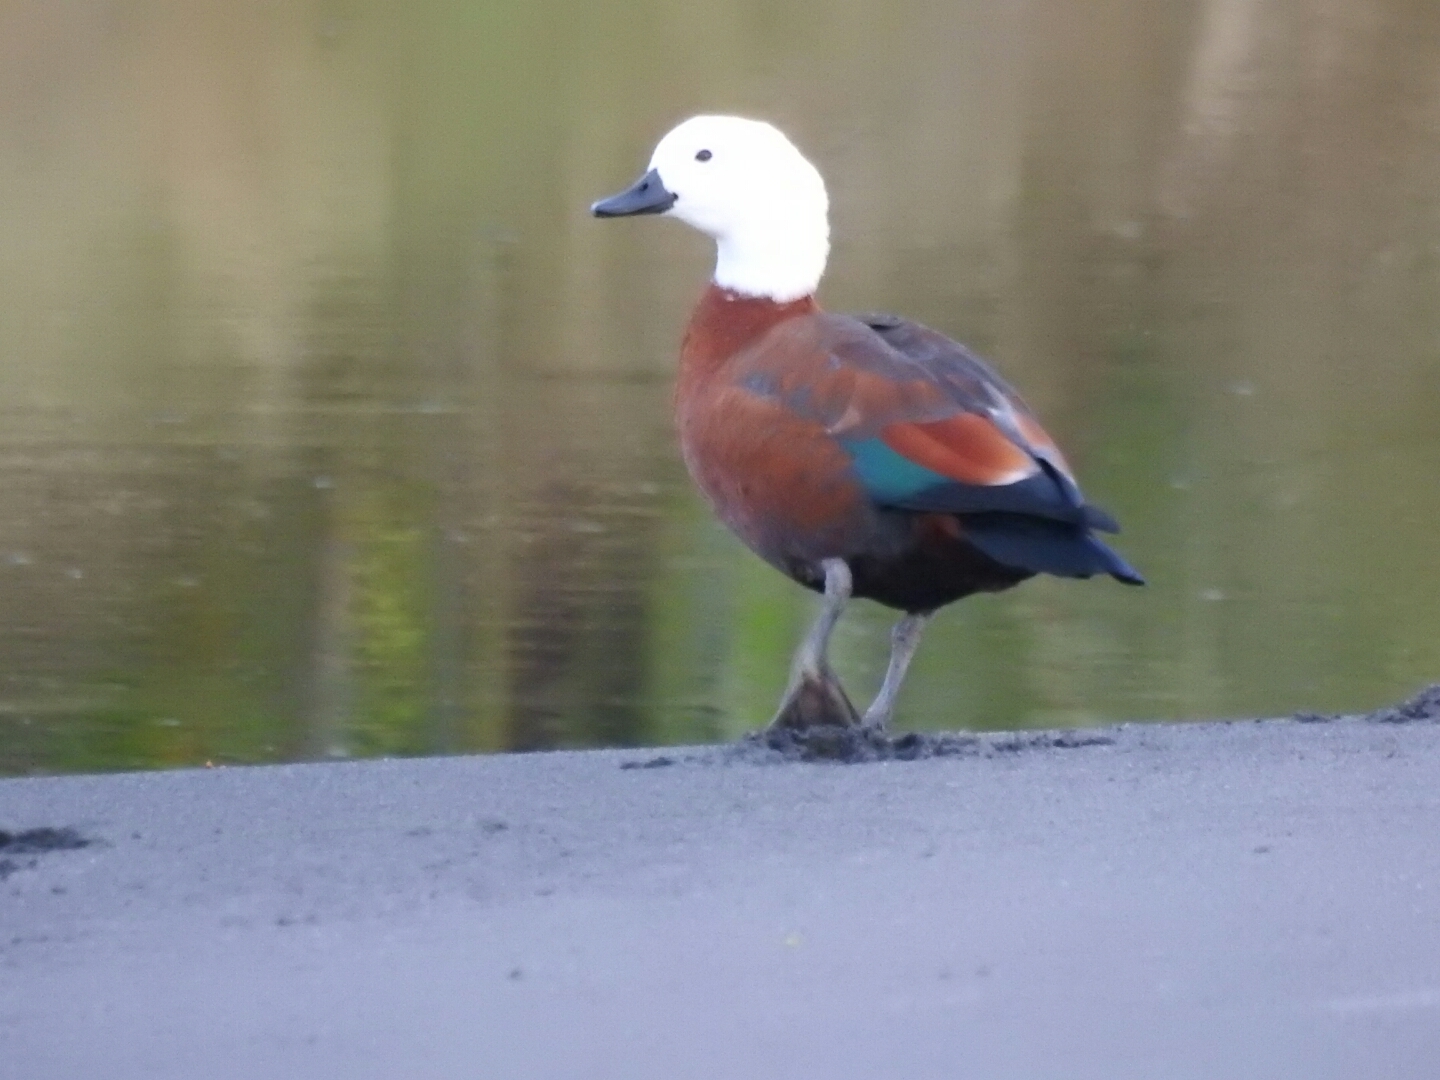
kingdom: Animalia
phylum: Chordata
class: Aves
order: Anseriformes
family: Anatidae
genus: Tadorna
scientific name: Tadorna variegata
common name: Paradise shelduck
